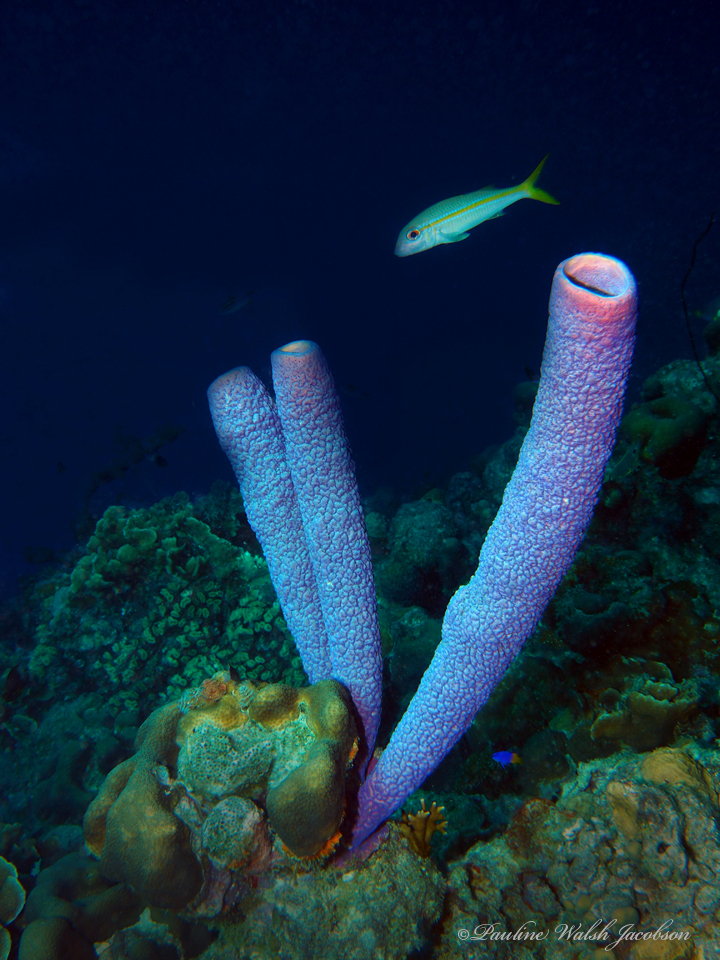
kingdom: Animalia
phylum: Chordata
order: Perciformes
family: Mullidae
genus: Mulloidichthys
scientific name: Mulloidichthys martinicus
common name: Yellow goatfish
